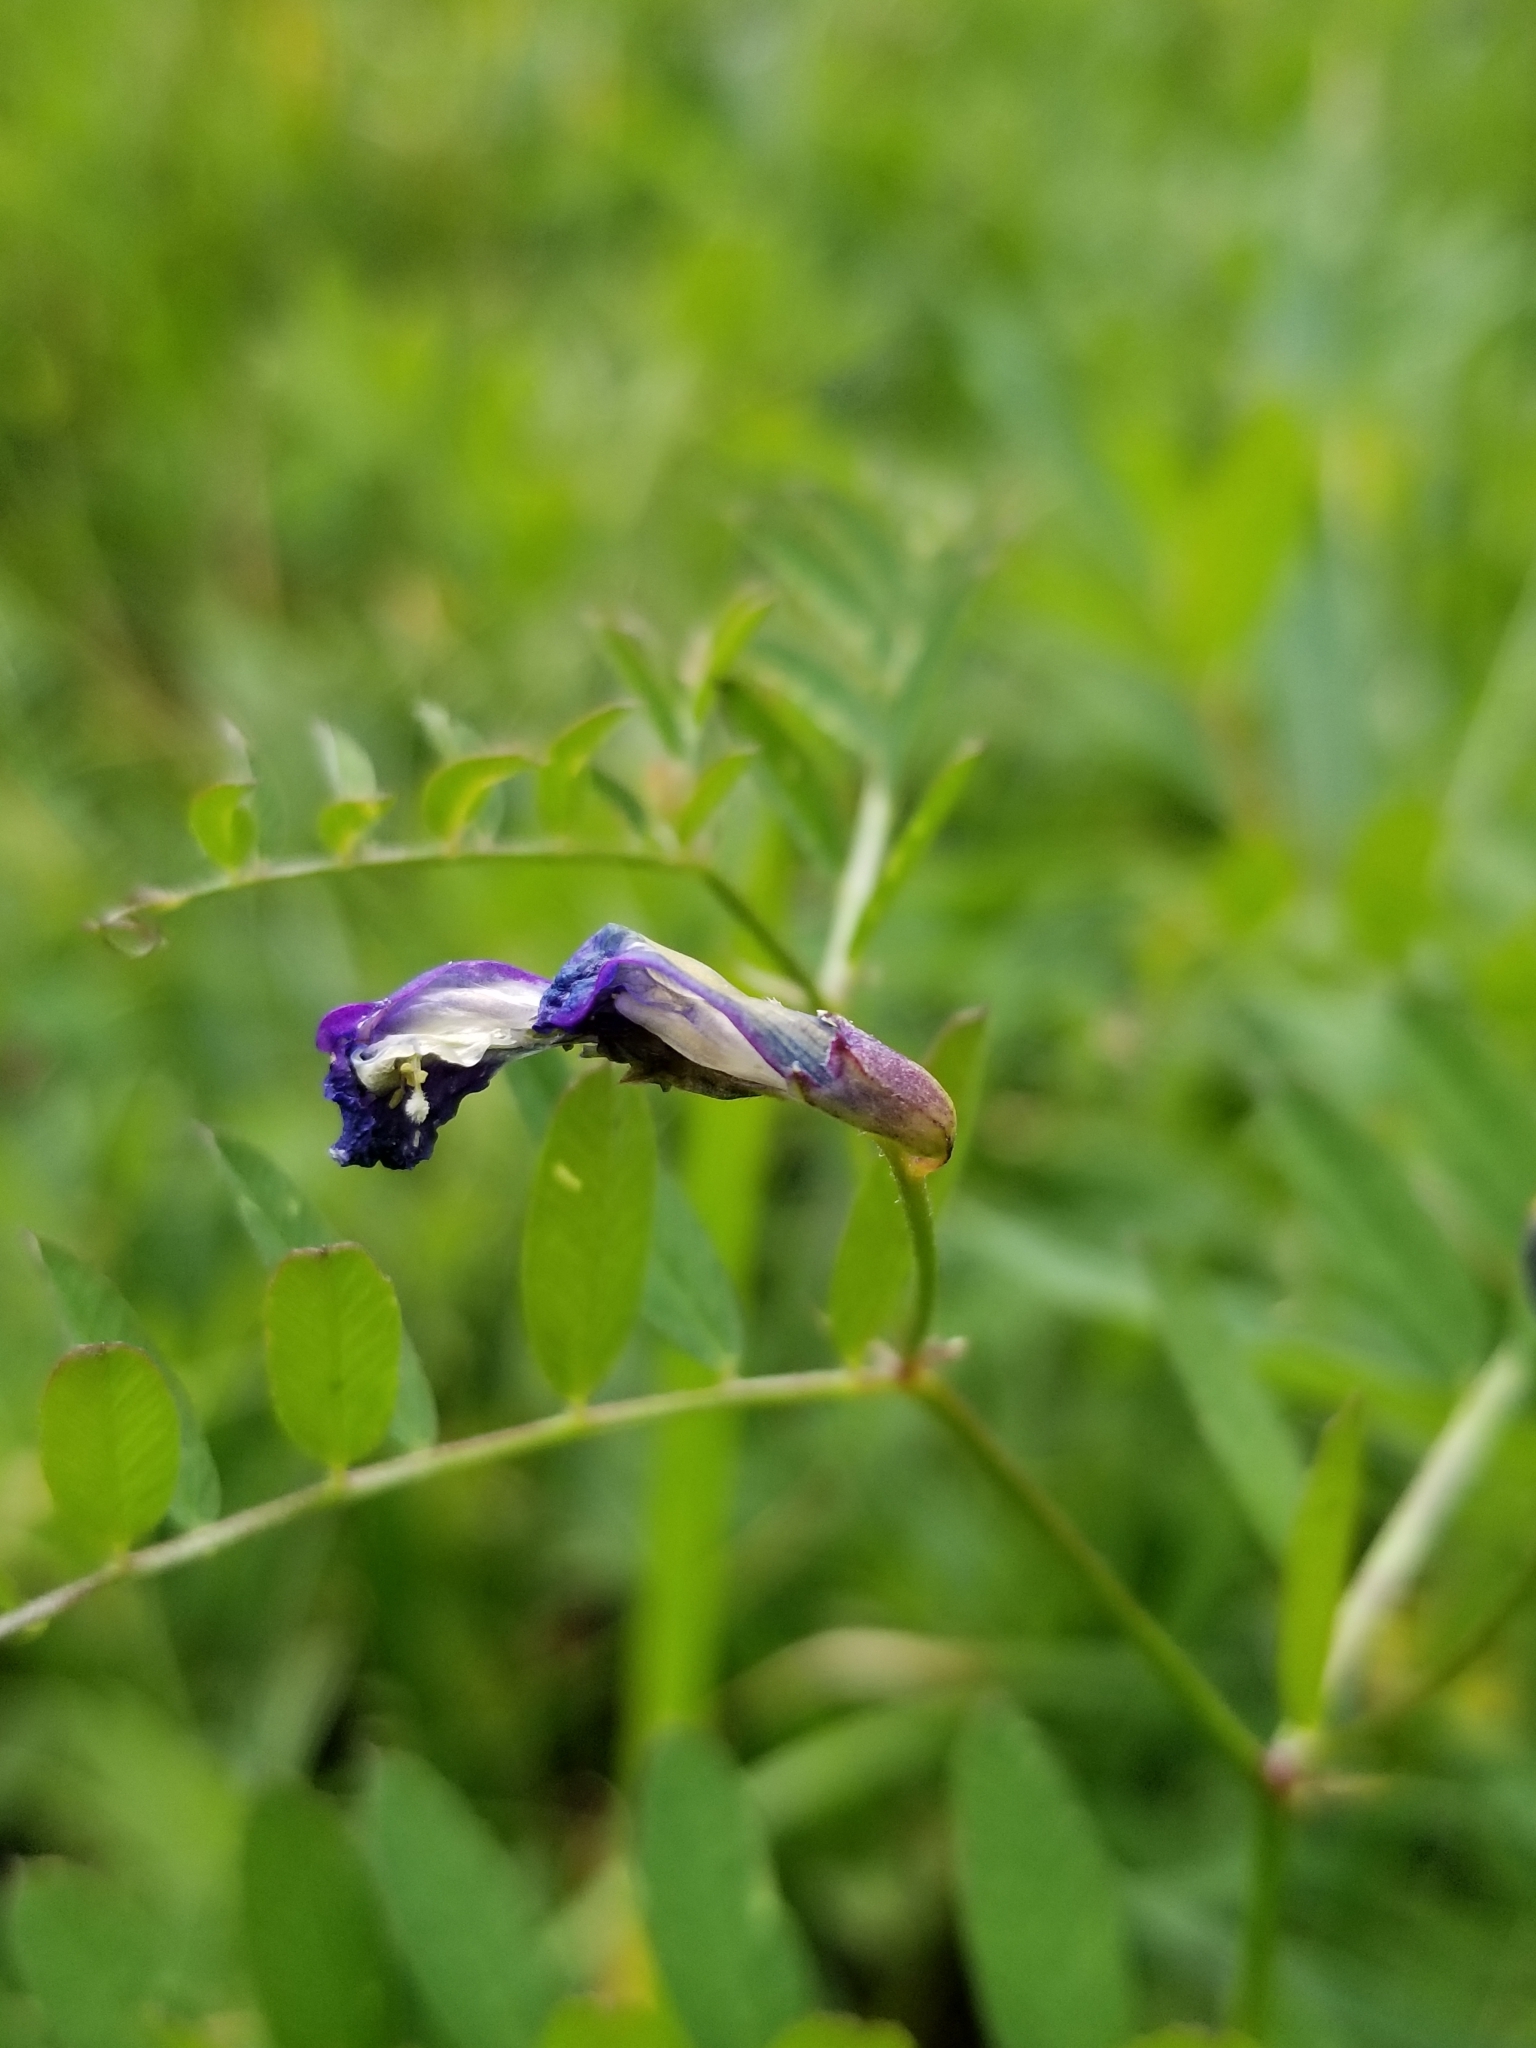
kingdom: Plantae
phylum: Tracheophyta
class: Magnoliopsida
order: Fabales
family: Fabaceae
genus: Vicia
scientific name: Vicia americana
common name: American vetch
